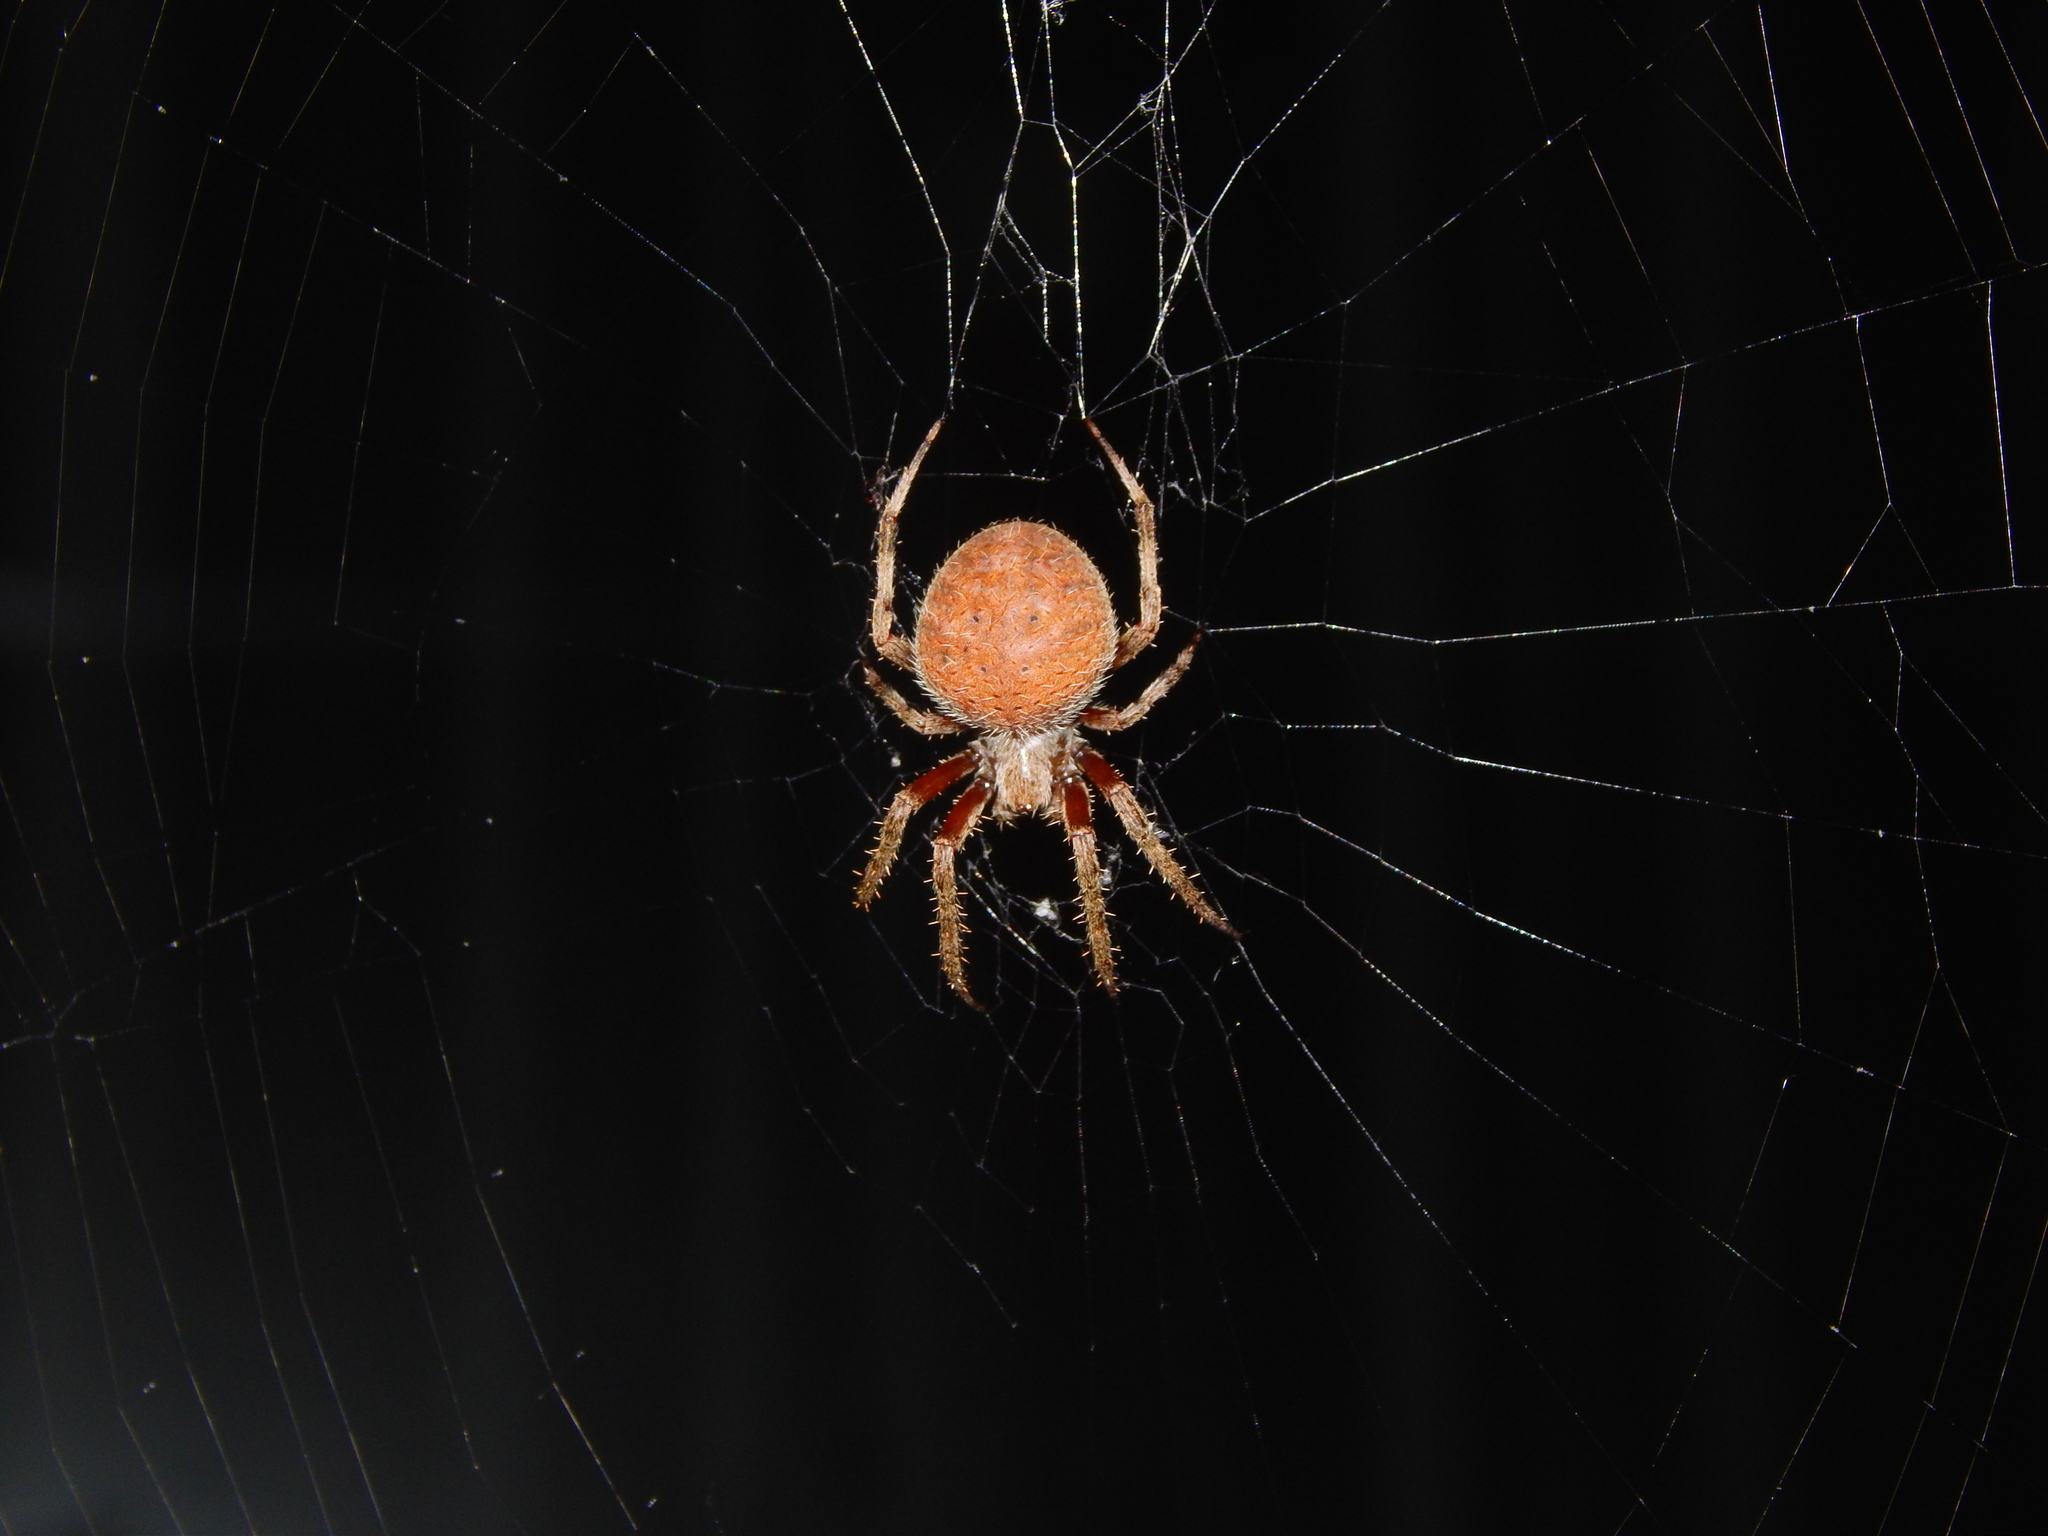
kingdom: Animalia
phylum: Arthropoda
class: Arachnida
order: Araneae
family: Araneidae
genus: Neoscona
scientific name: Neoscona crucifera
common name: Spotted orbweaver
